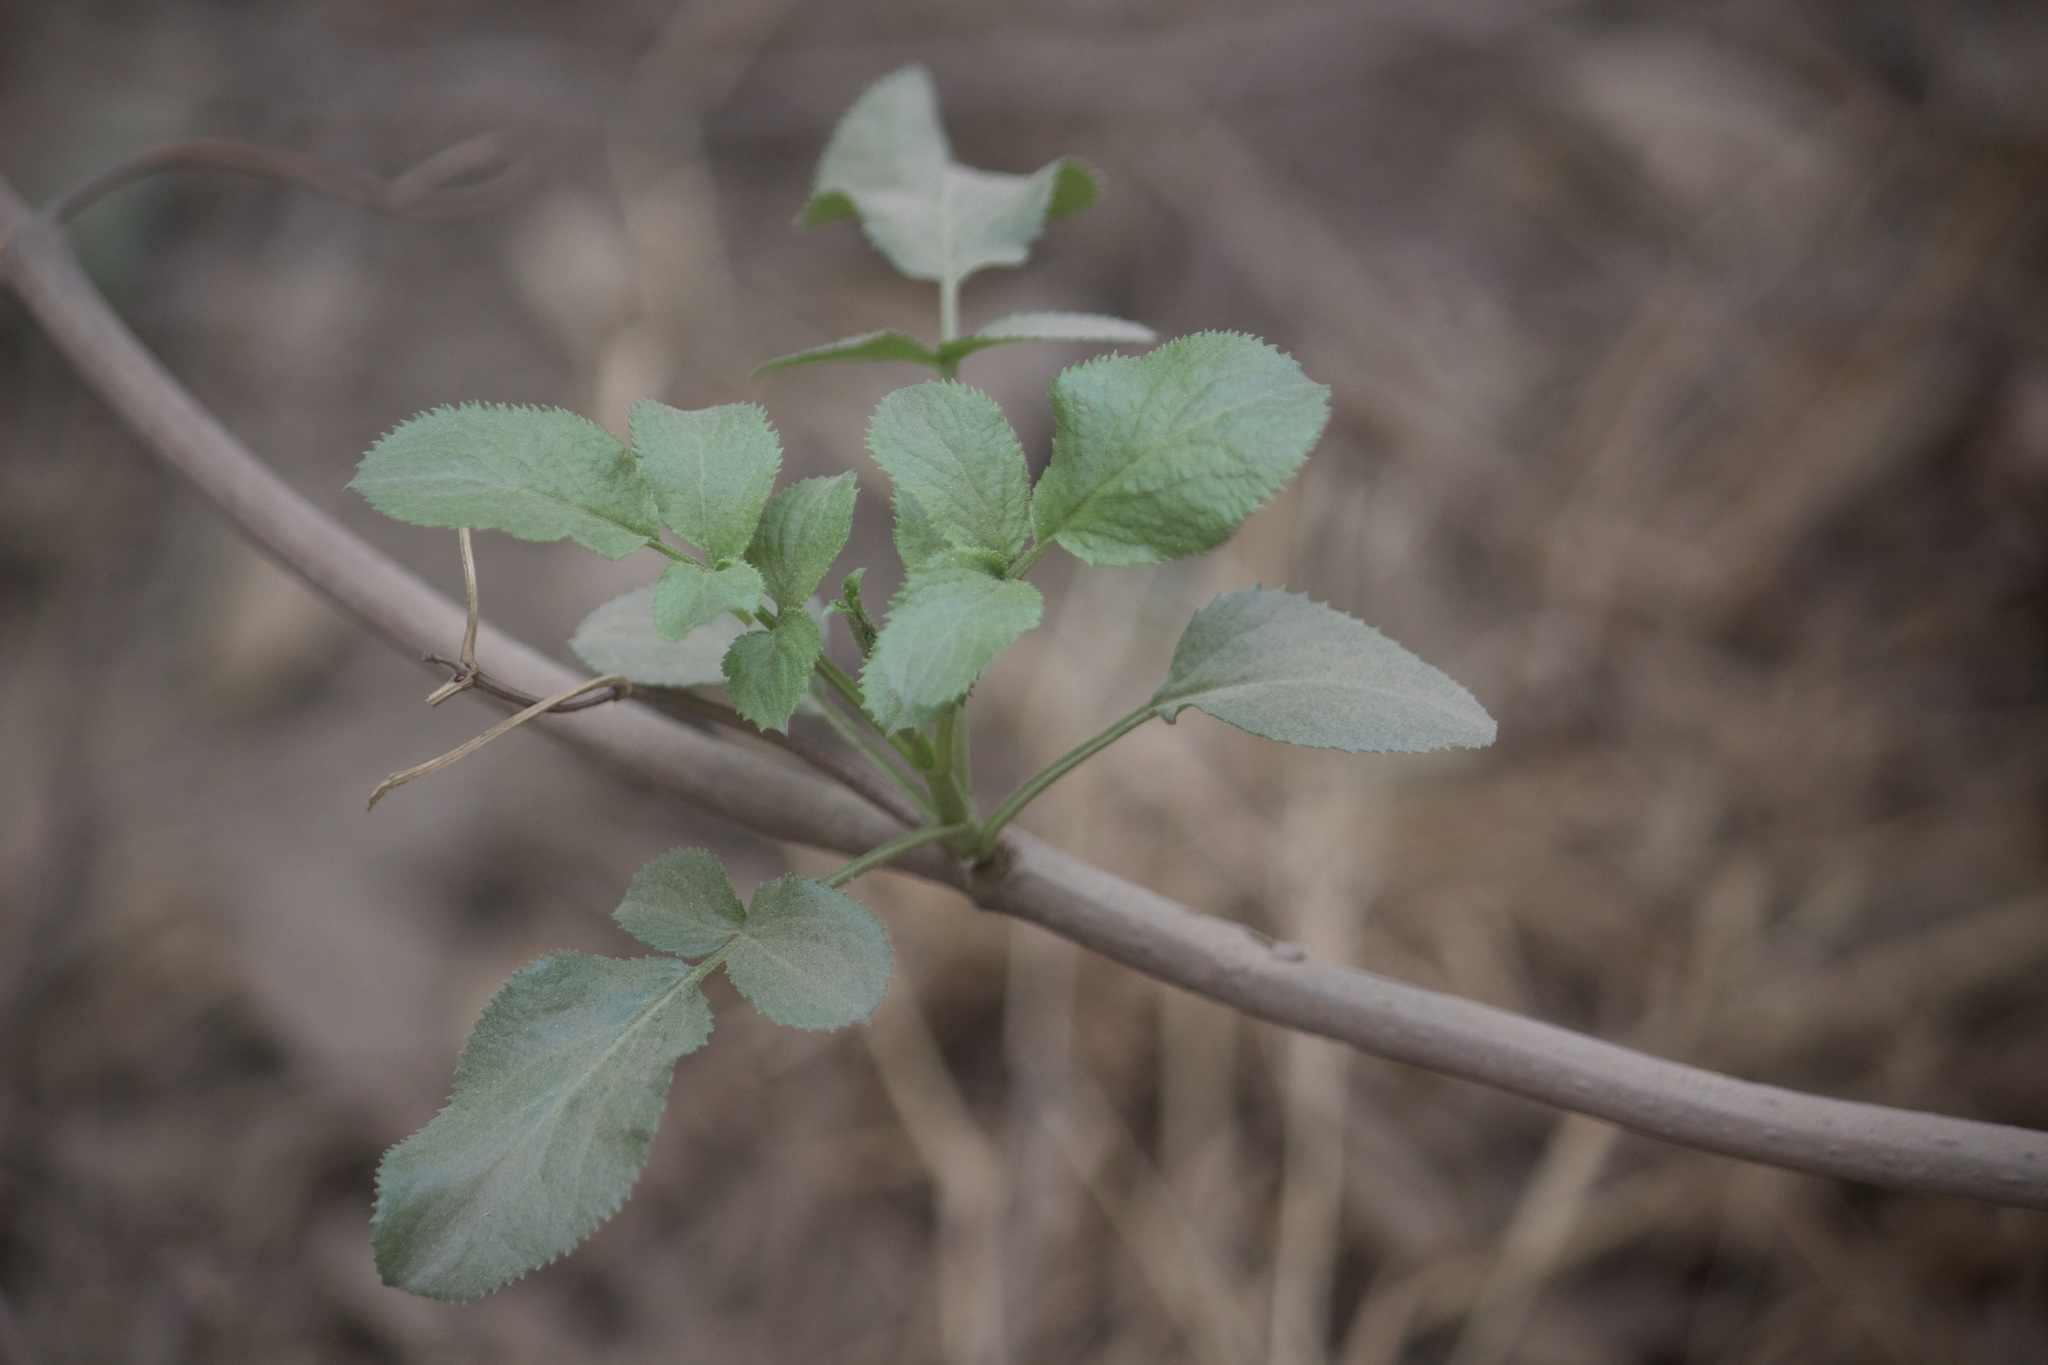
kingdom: Plantae
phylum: Tracheophyta
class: Magnoliopsida
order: Dipsacales
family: Viburnaceae
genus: Sambucus
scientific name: Sambucus cerulea
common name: Blue elder
